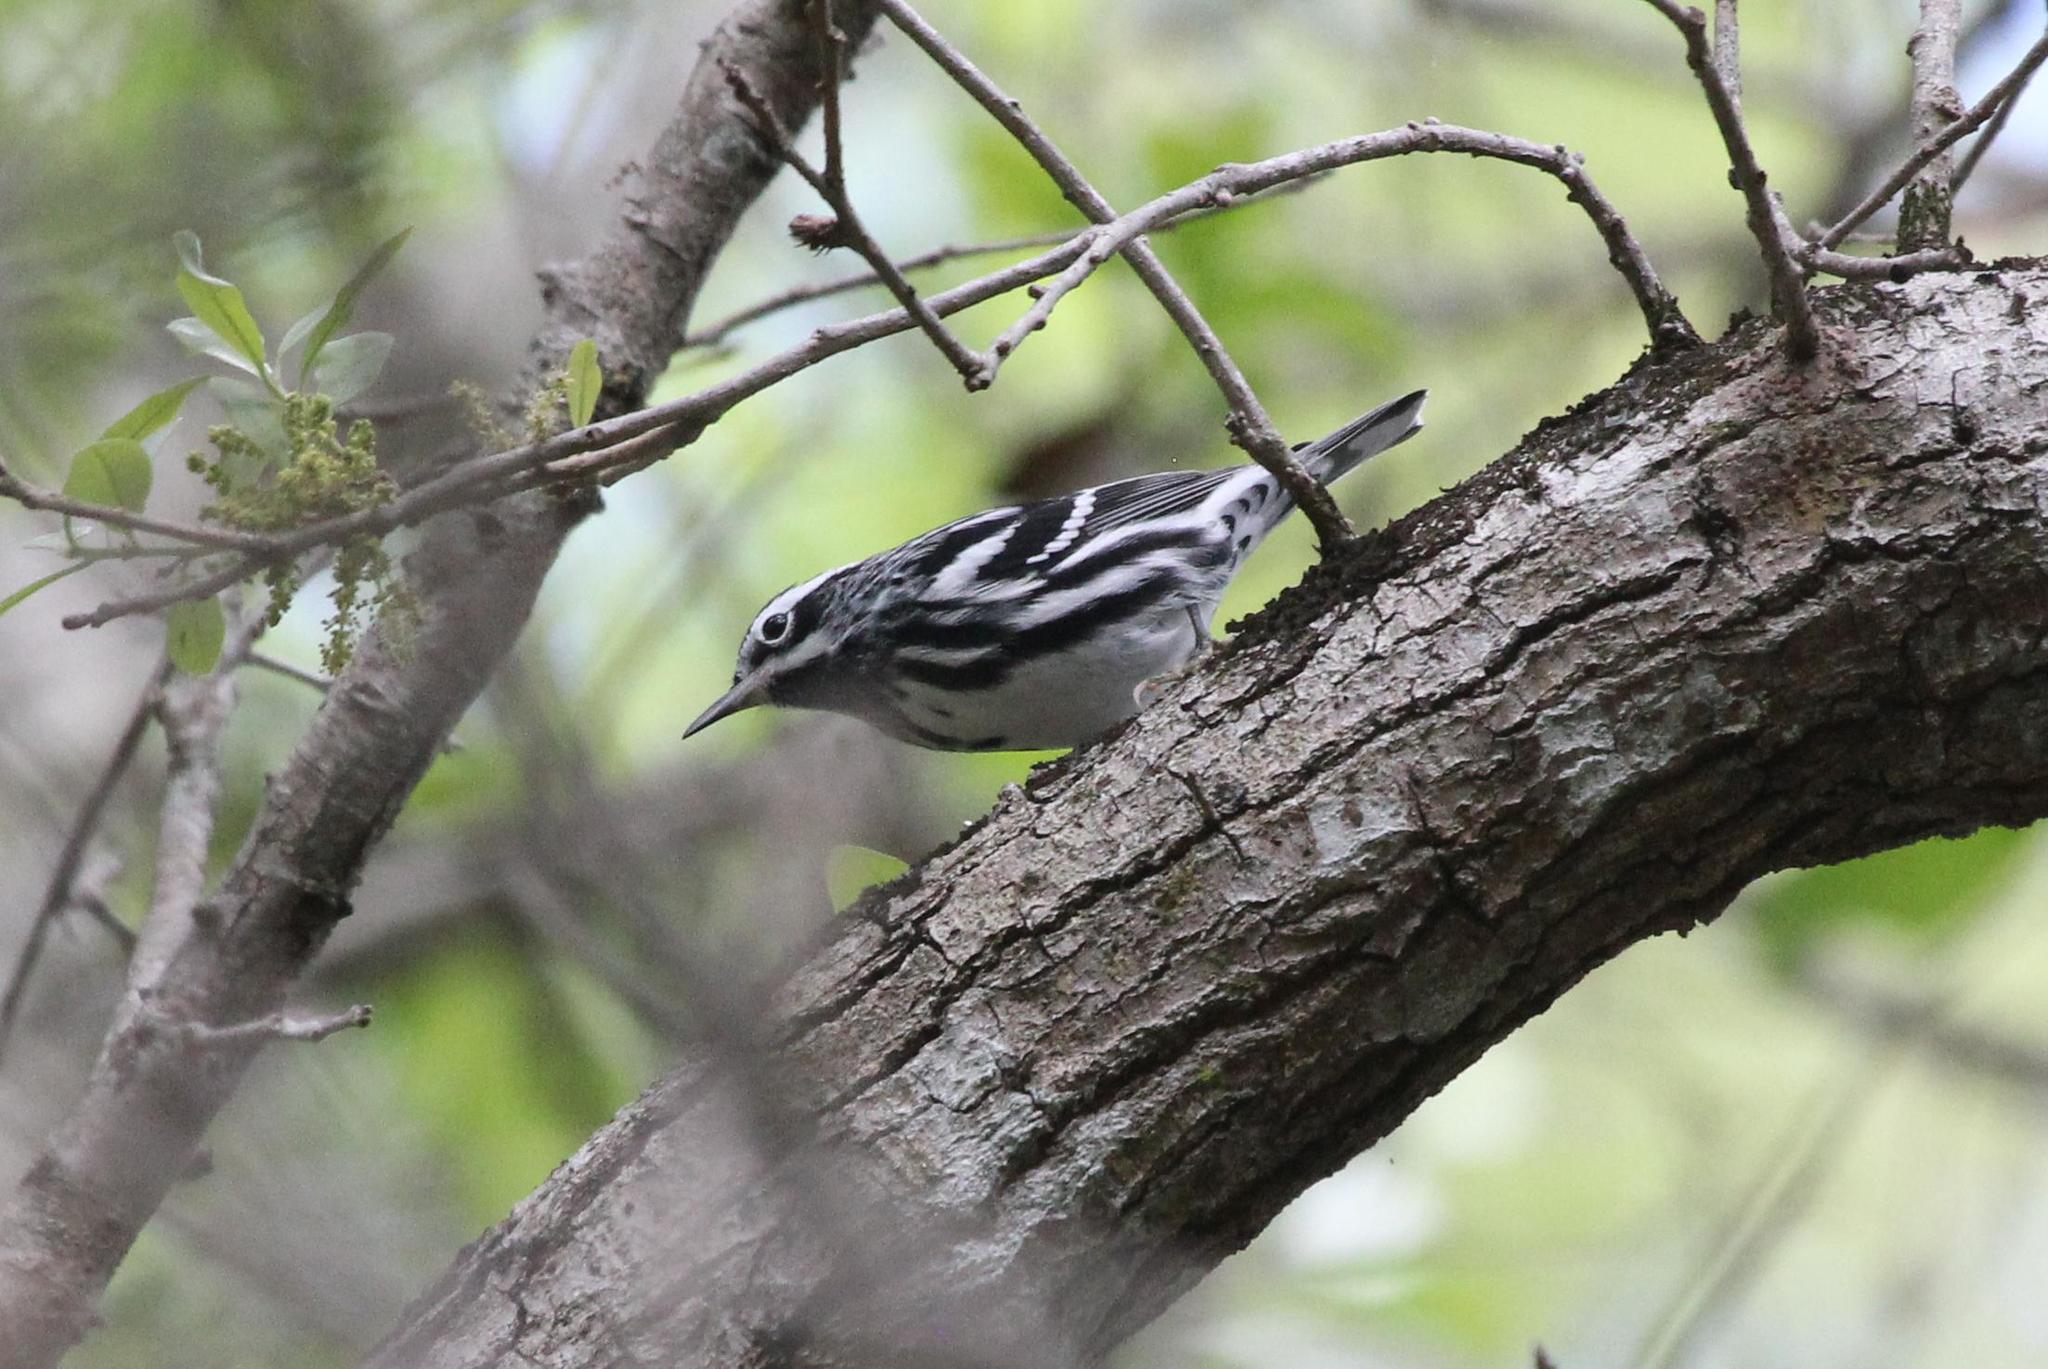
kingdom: Animalia
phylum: Chordata
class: Aves
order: Passeriformes
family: Parulidae
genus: Mniotilta
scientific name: Mniotilta varia
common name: Black-and-white warbler
